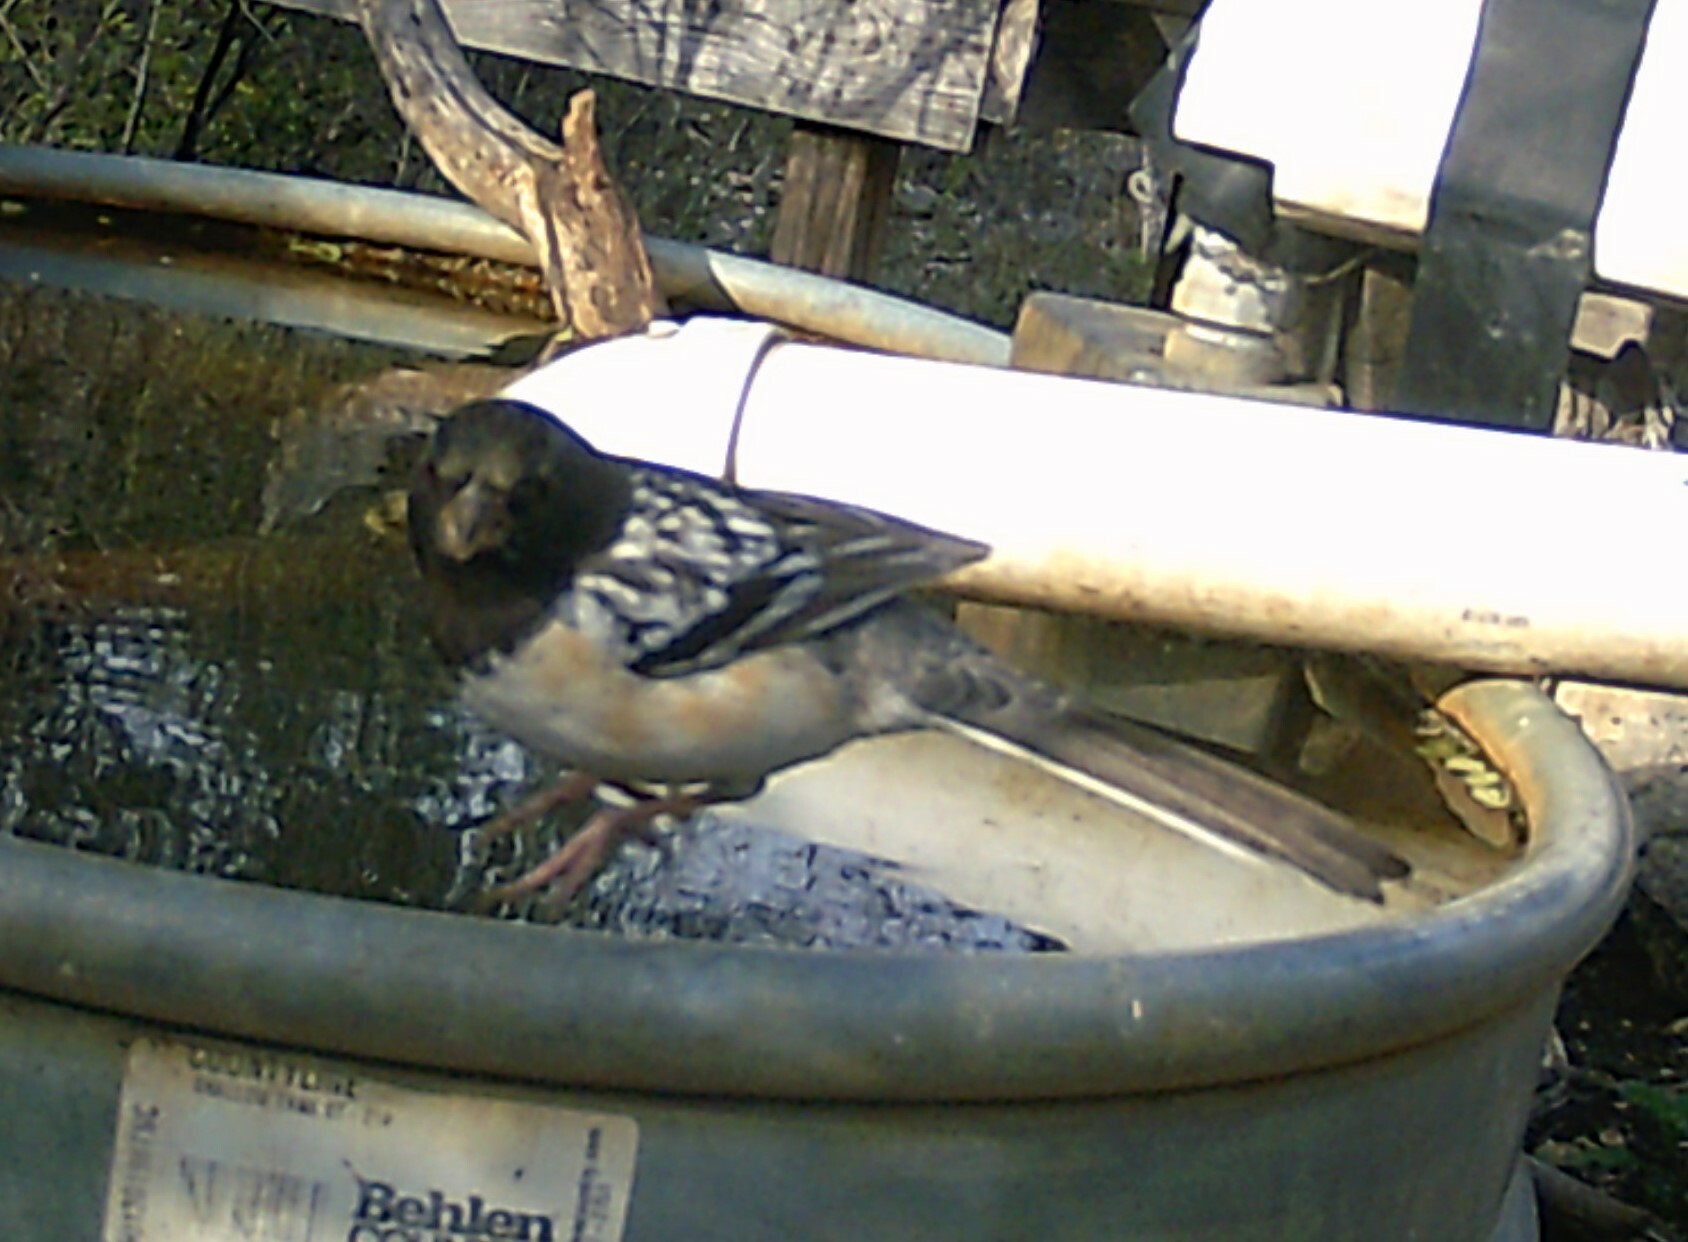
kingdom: Animalia
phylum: Chordata
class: Aves
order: Passeriformes
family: Passerellidae
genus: Pipilo
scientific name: Pipilo maculatus
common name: Spotted towhee
